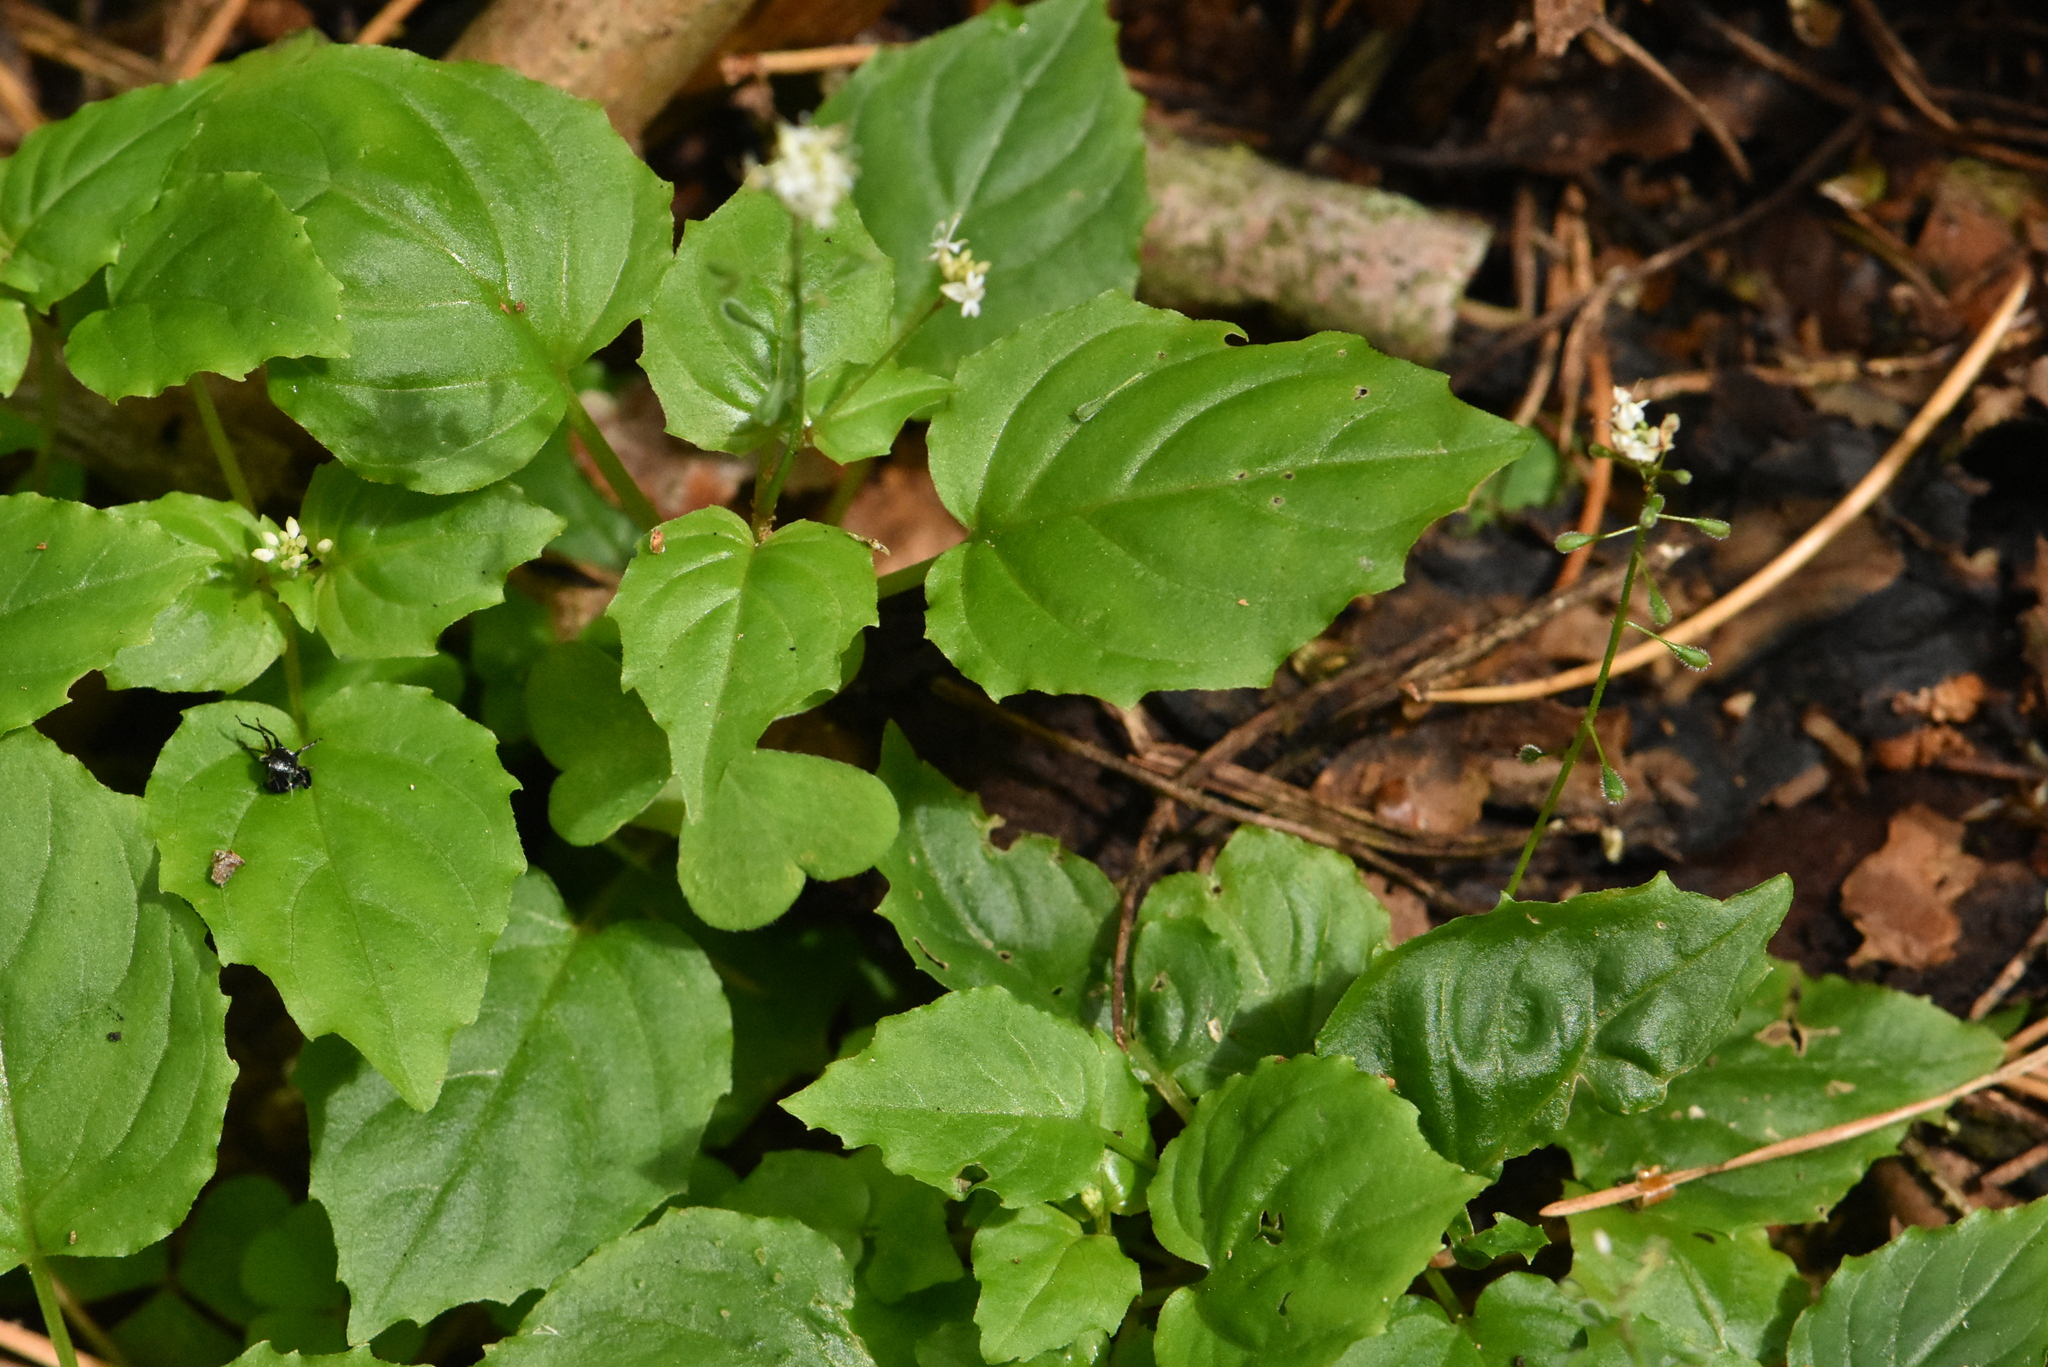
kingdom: Plantae
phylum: Tracheophyta
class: Magnoliopsida
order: Myrtales
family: Onagraceae
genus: Circaea
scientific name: Circaea alpina
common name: Alpine enchanter's-nightshade
